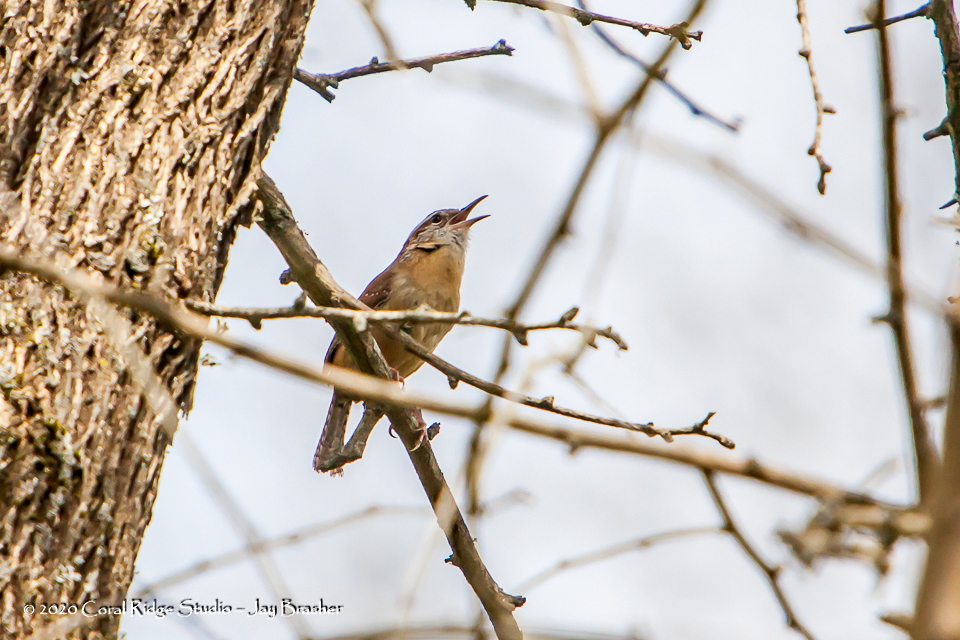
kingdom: Animalia
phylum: Chordata
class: Aves
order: Passeriformes
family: Troglodytidae
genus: Thryothorus
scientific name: Thryothorus ludovicianus
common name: Carolina wren
